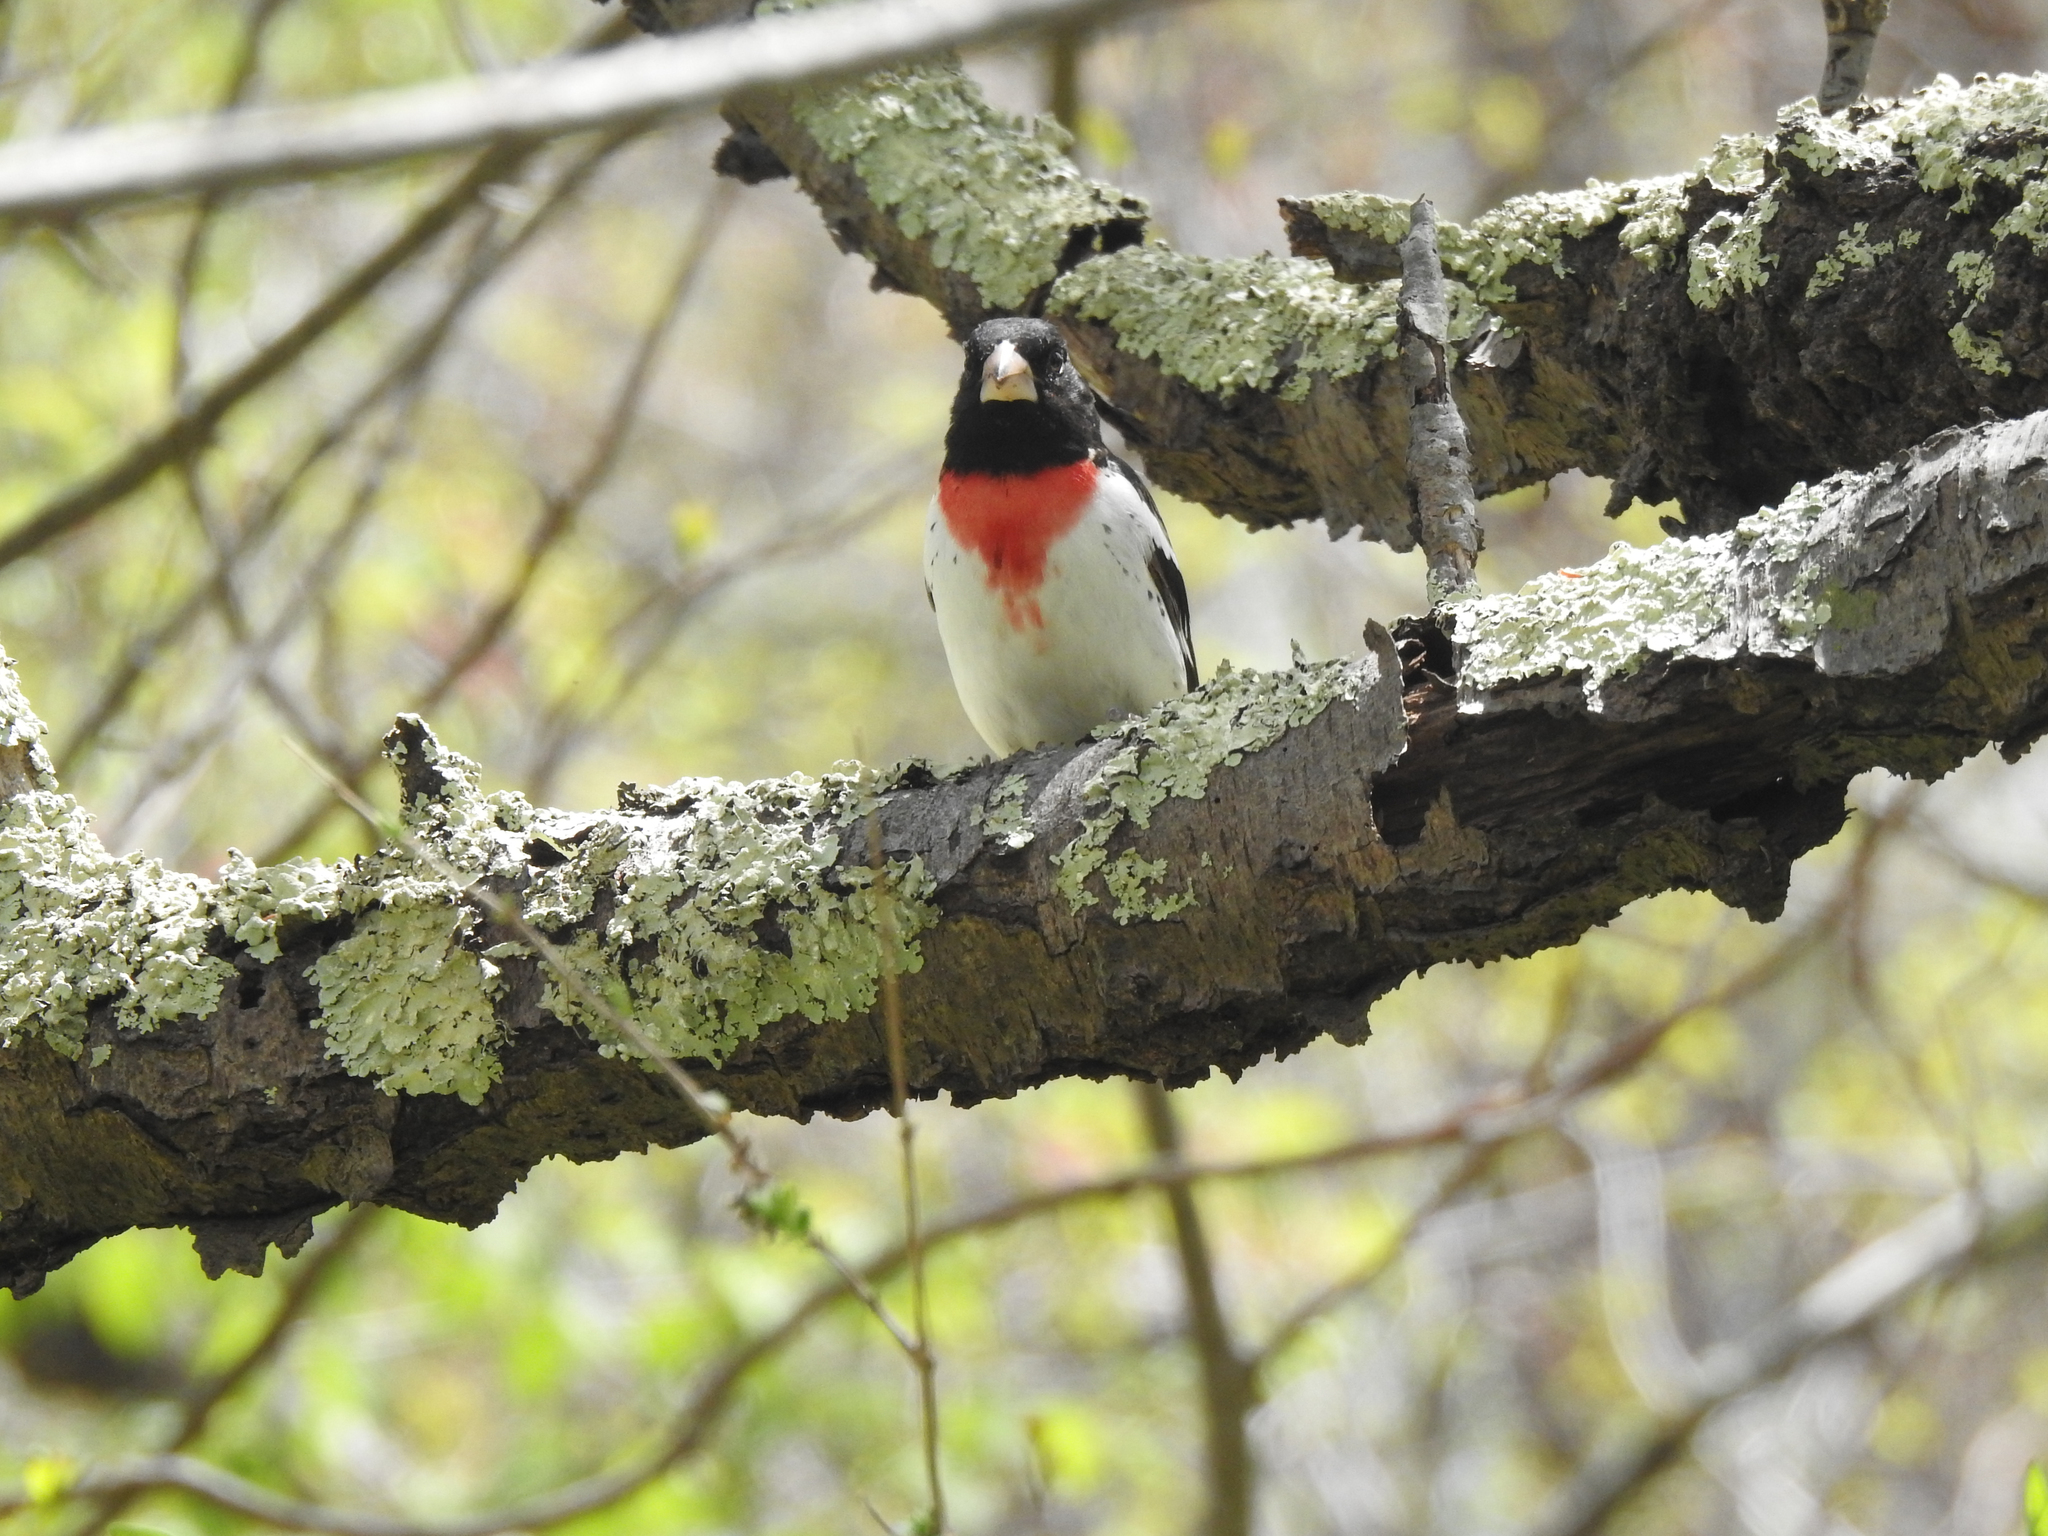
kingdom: Animalia
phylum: Chordata
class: Aves
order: Passeriformes
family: Cardinalidae
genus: Pheucticus
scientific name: Pheucticus ludovicianus
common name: Rose-breasted grosbeak
